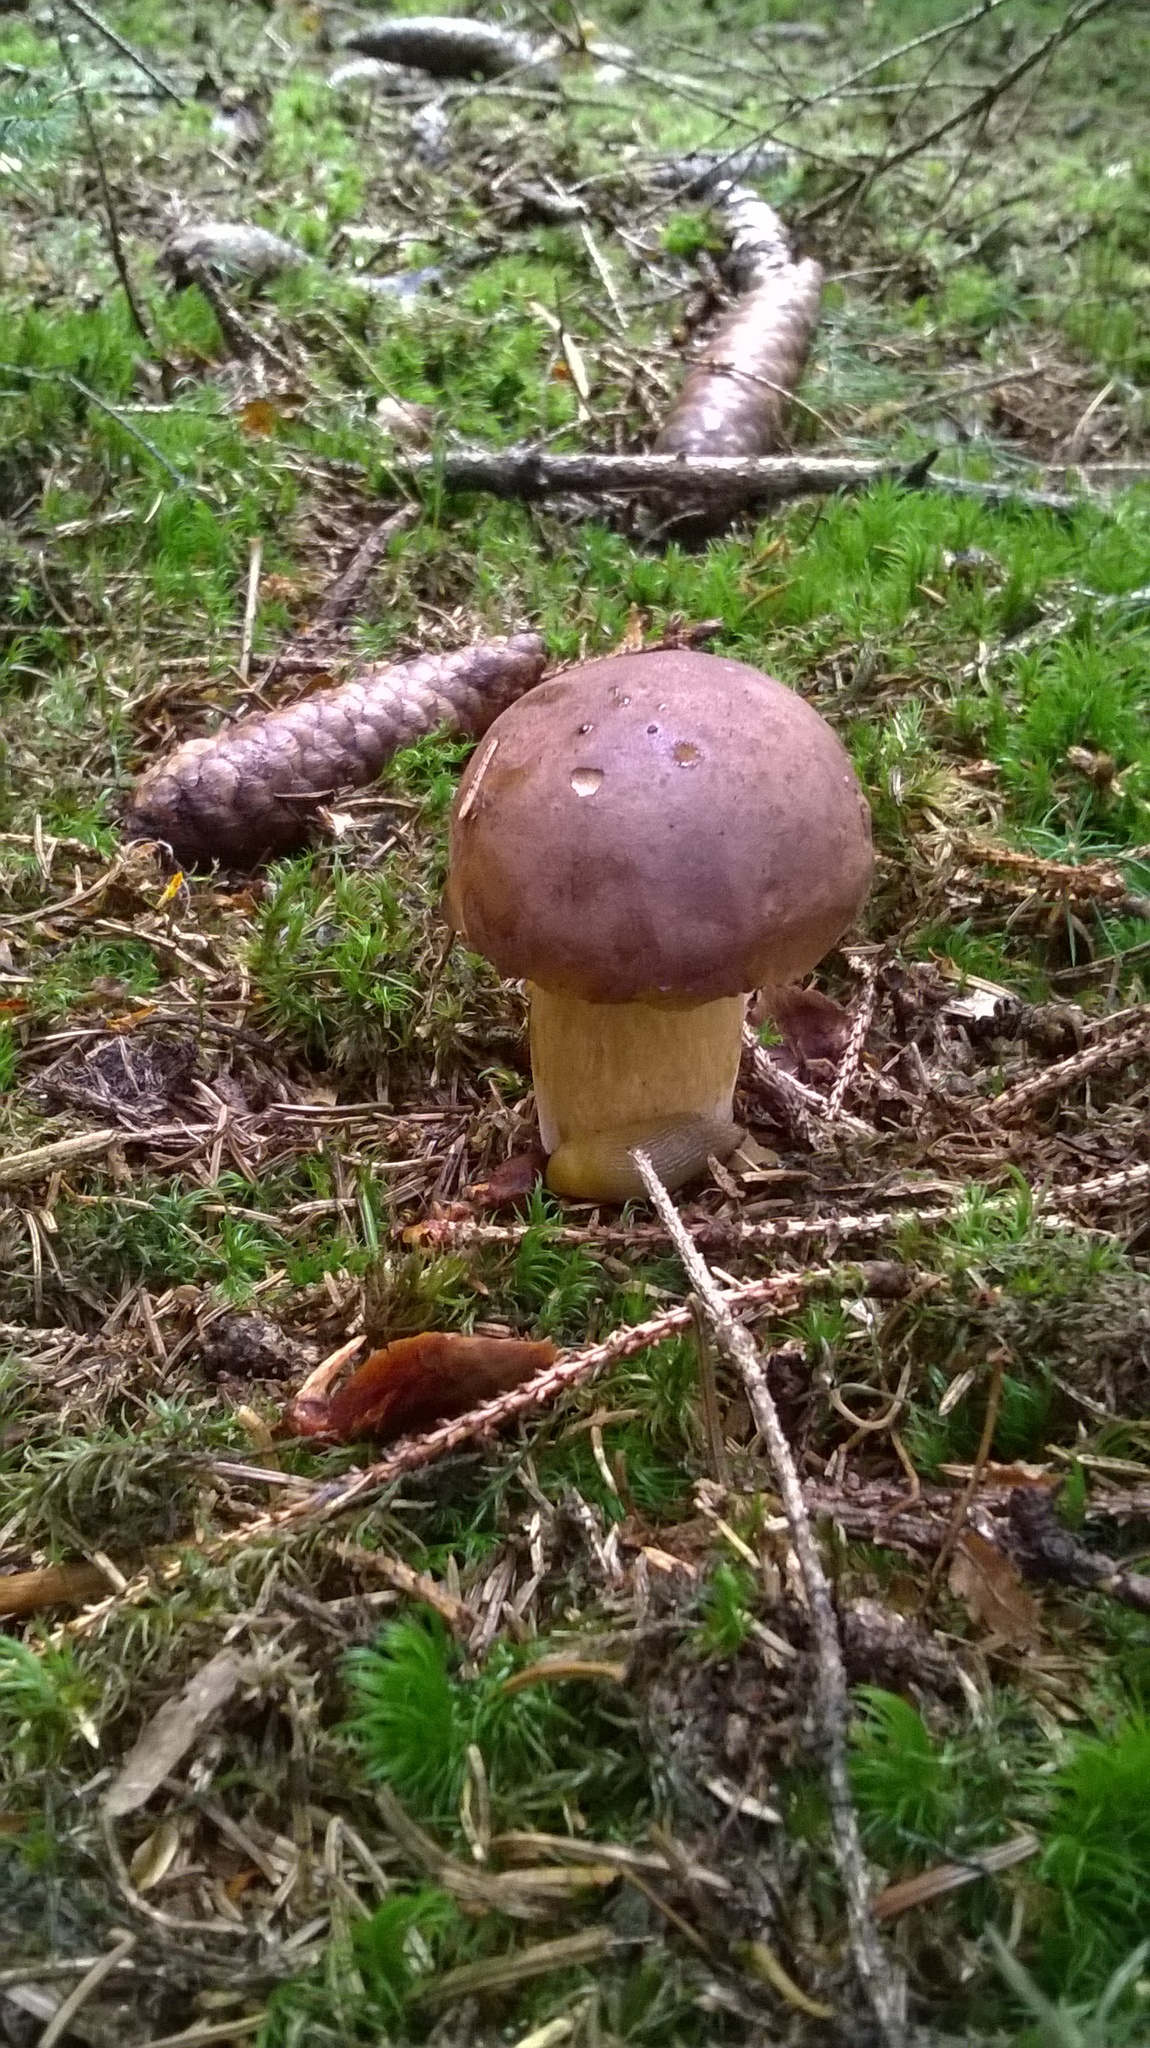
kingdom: Fungi
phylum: Basidiomycota
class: Agaricomycetes
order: Boletales
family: Boletaceae
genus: Imleria
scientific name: Imleria badia
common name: Bay bolete
